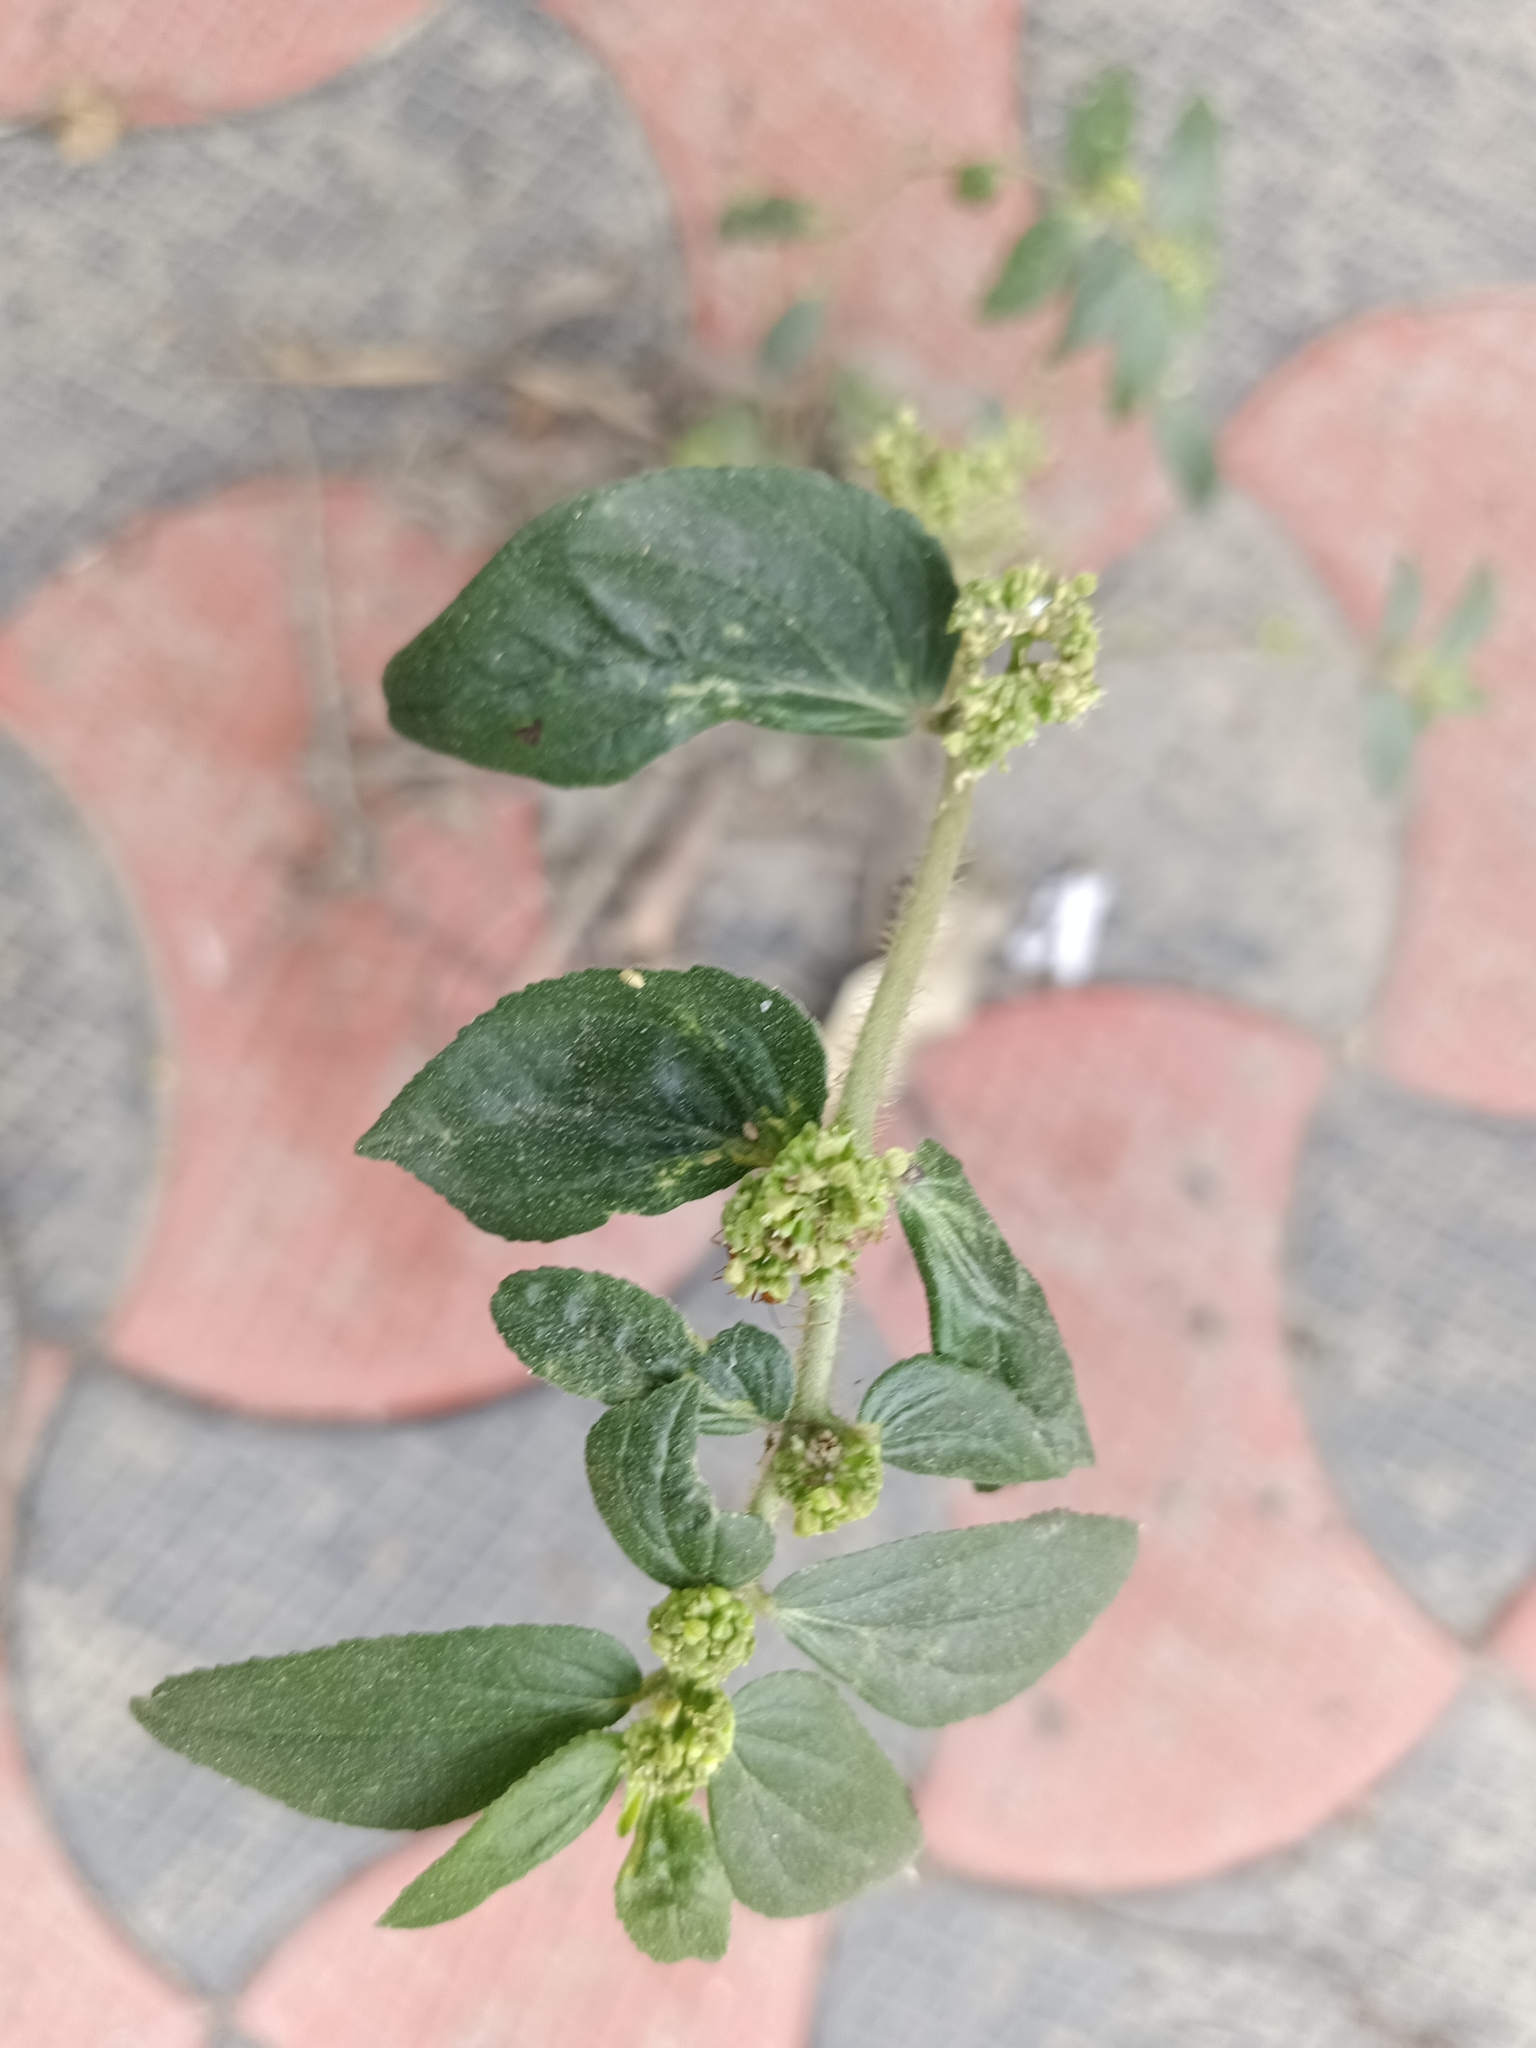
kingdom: Plantae
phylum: Tracheophyta
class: Magnoliopsida
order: Malpighiales
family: Euphorbiaceae
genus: Euphorbia
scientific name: Euphorbia hirta
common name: Pillpod sandmat
